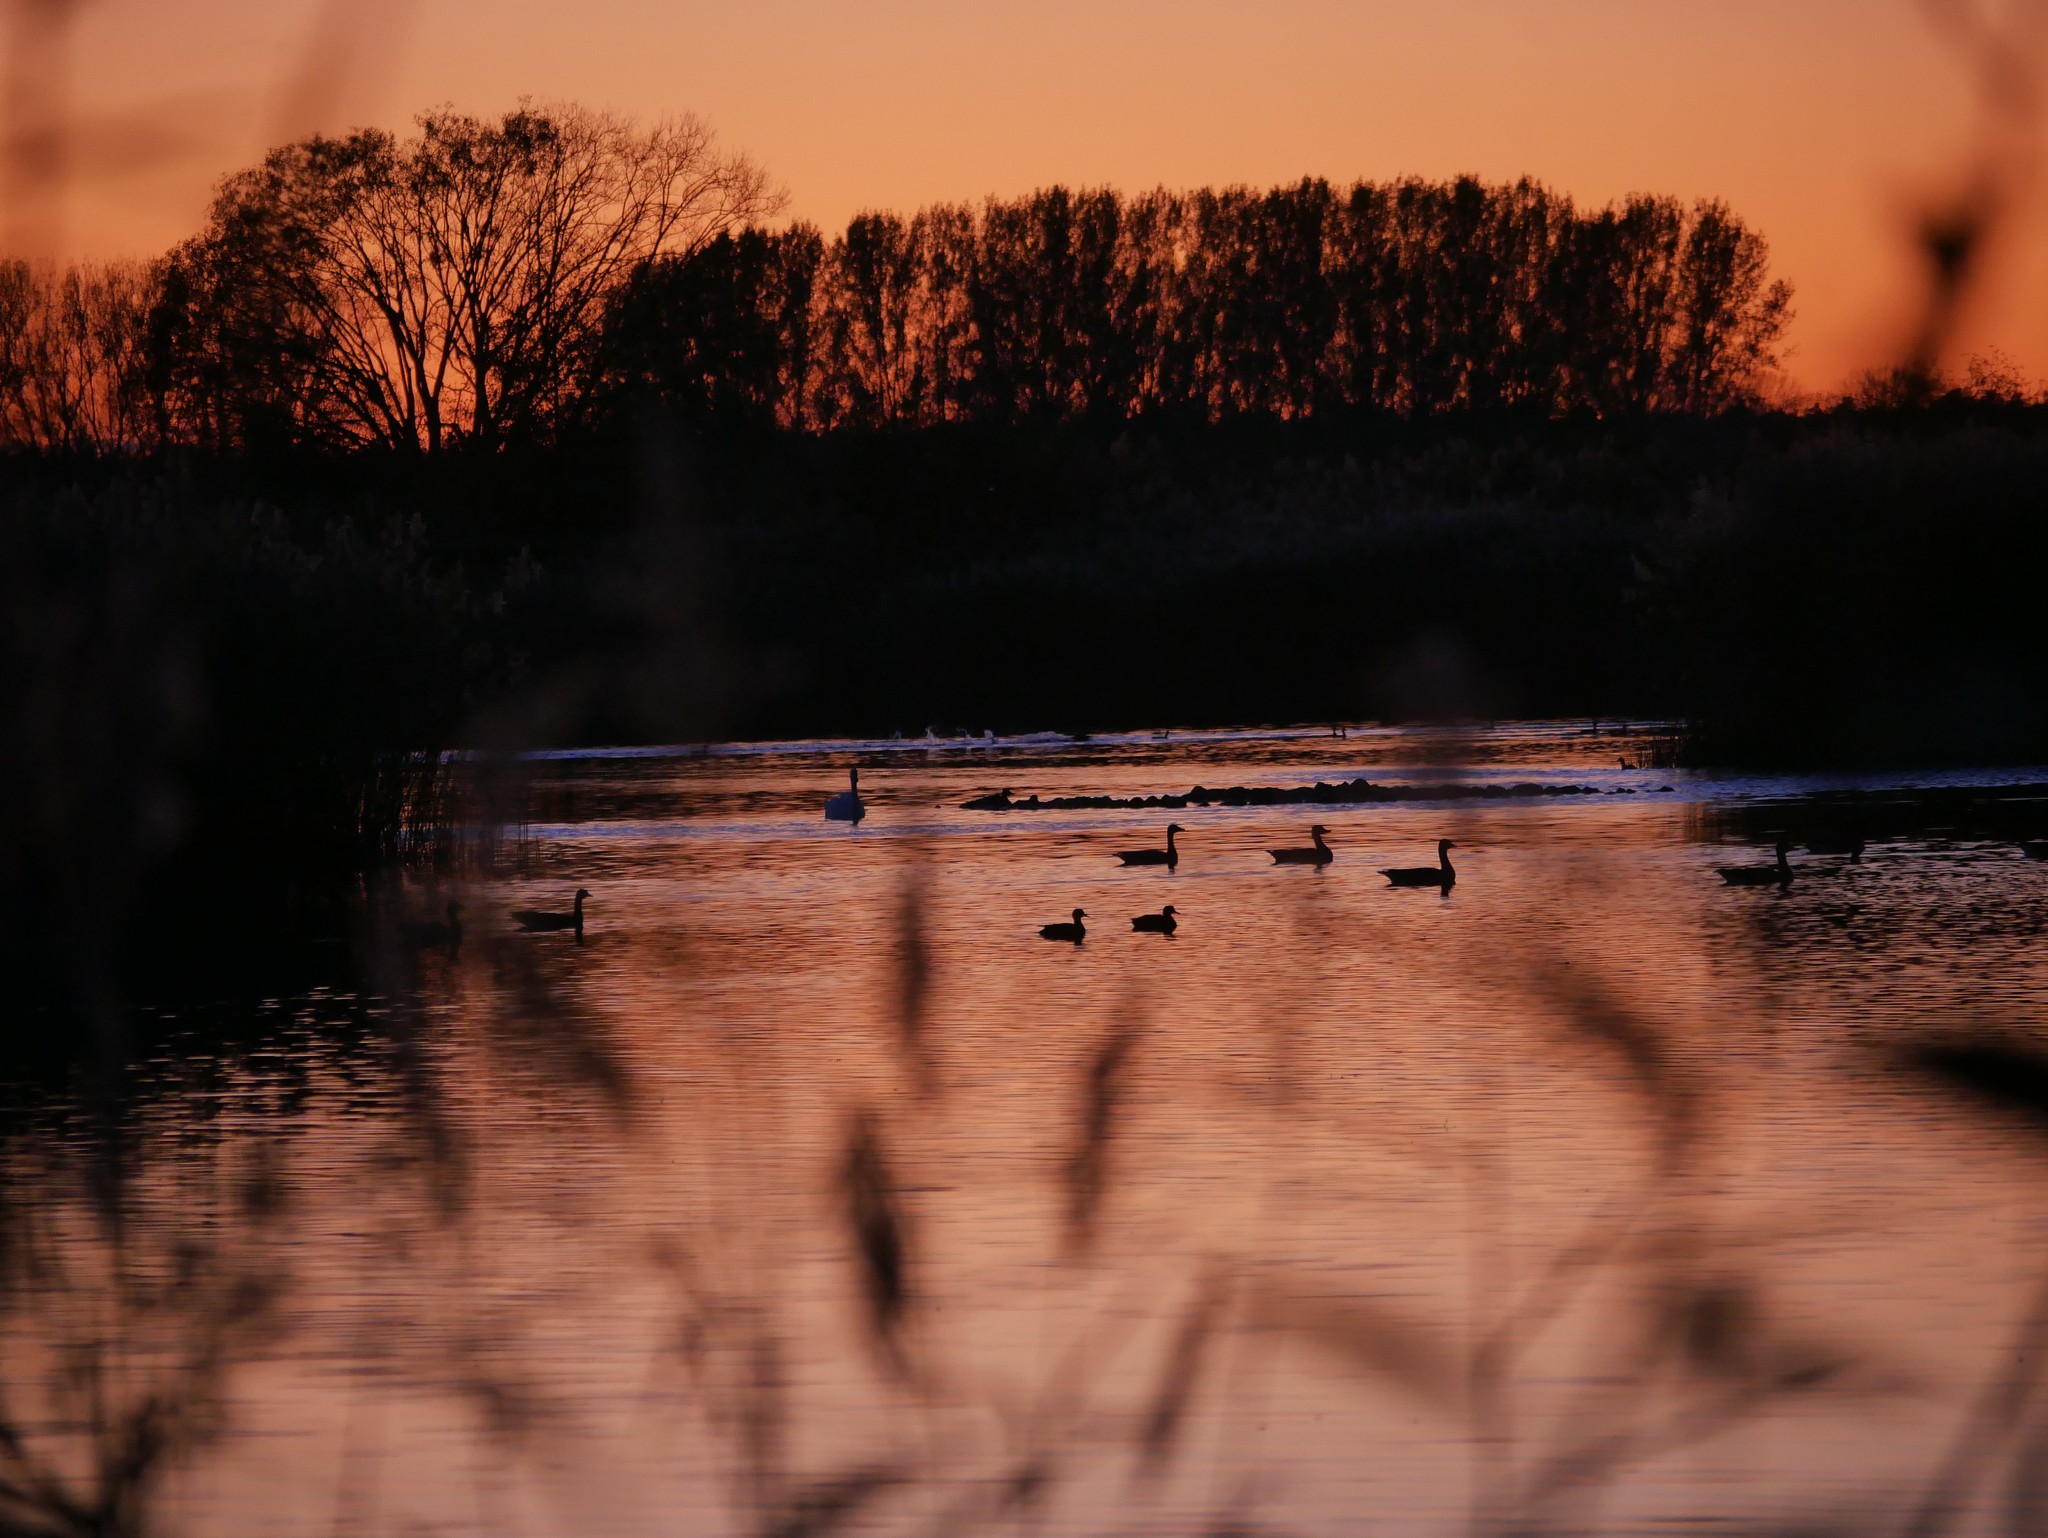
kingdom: Animalia
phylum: Chordata
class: Aves
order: Anseriformes
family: Anatidae
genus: Cygnus
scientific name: Cygnus olor
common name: Mute swan
